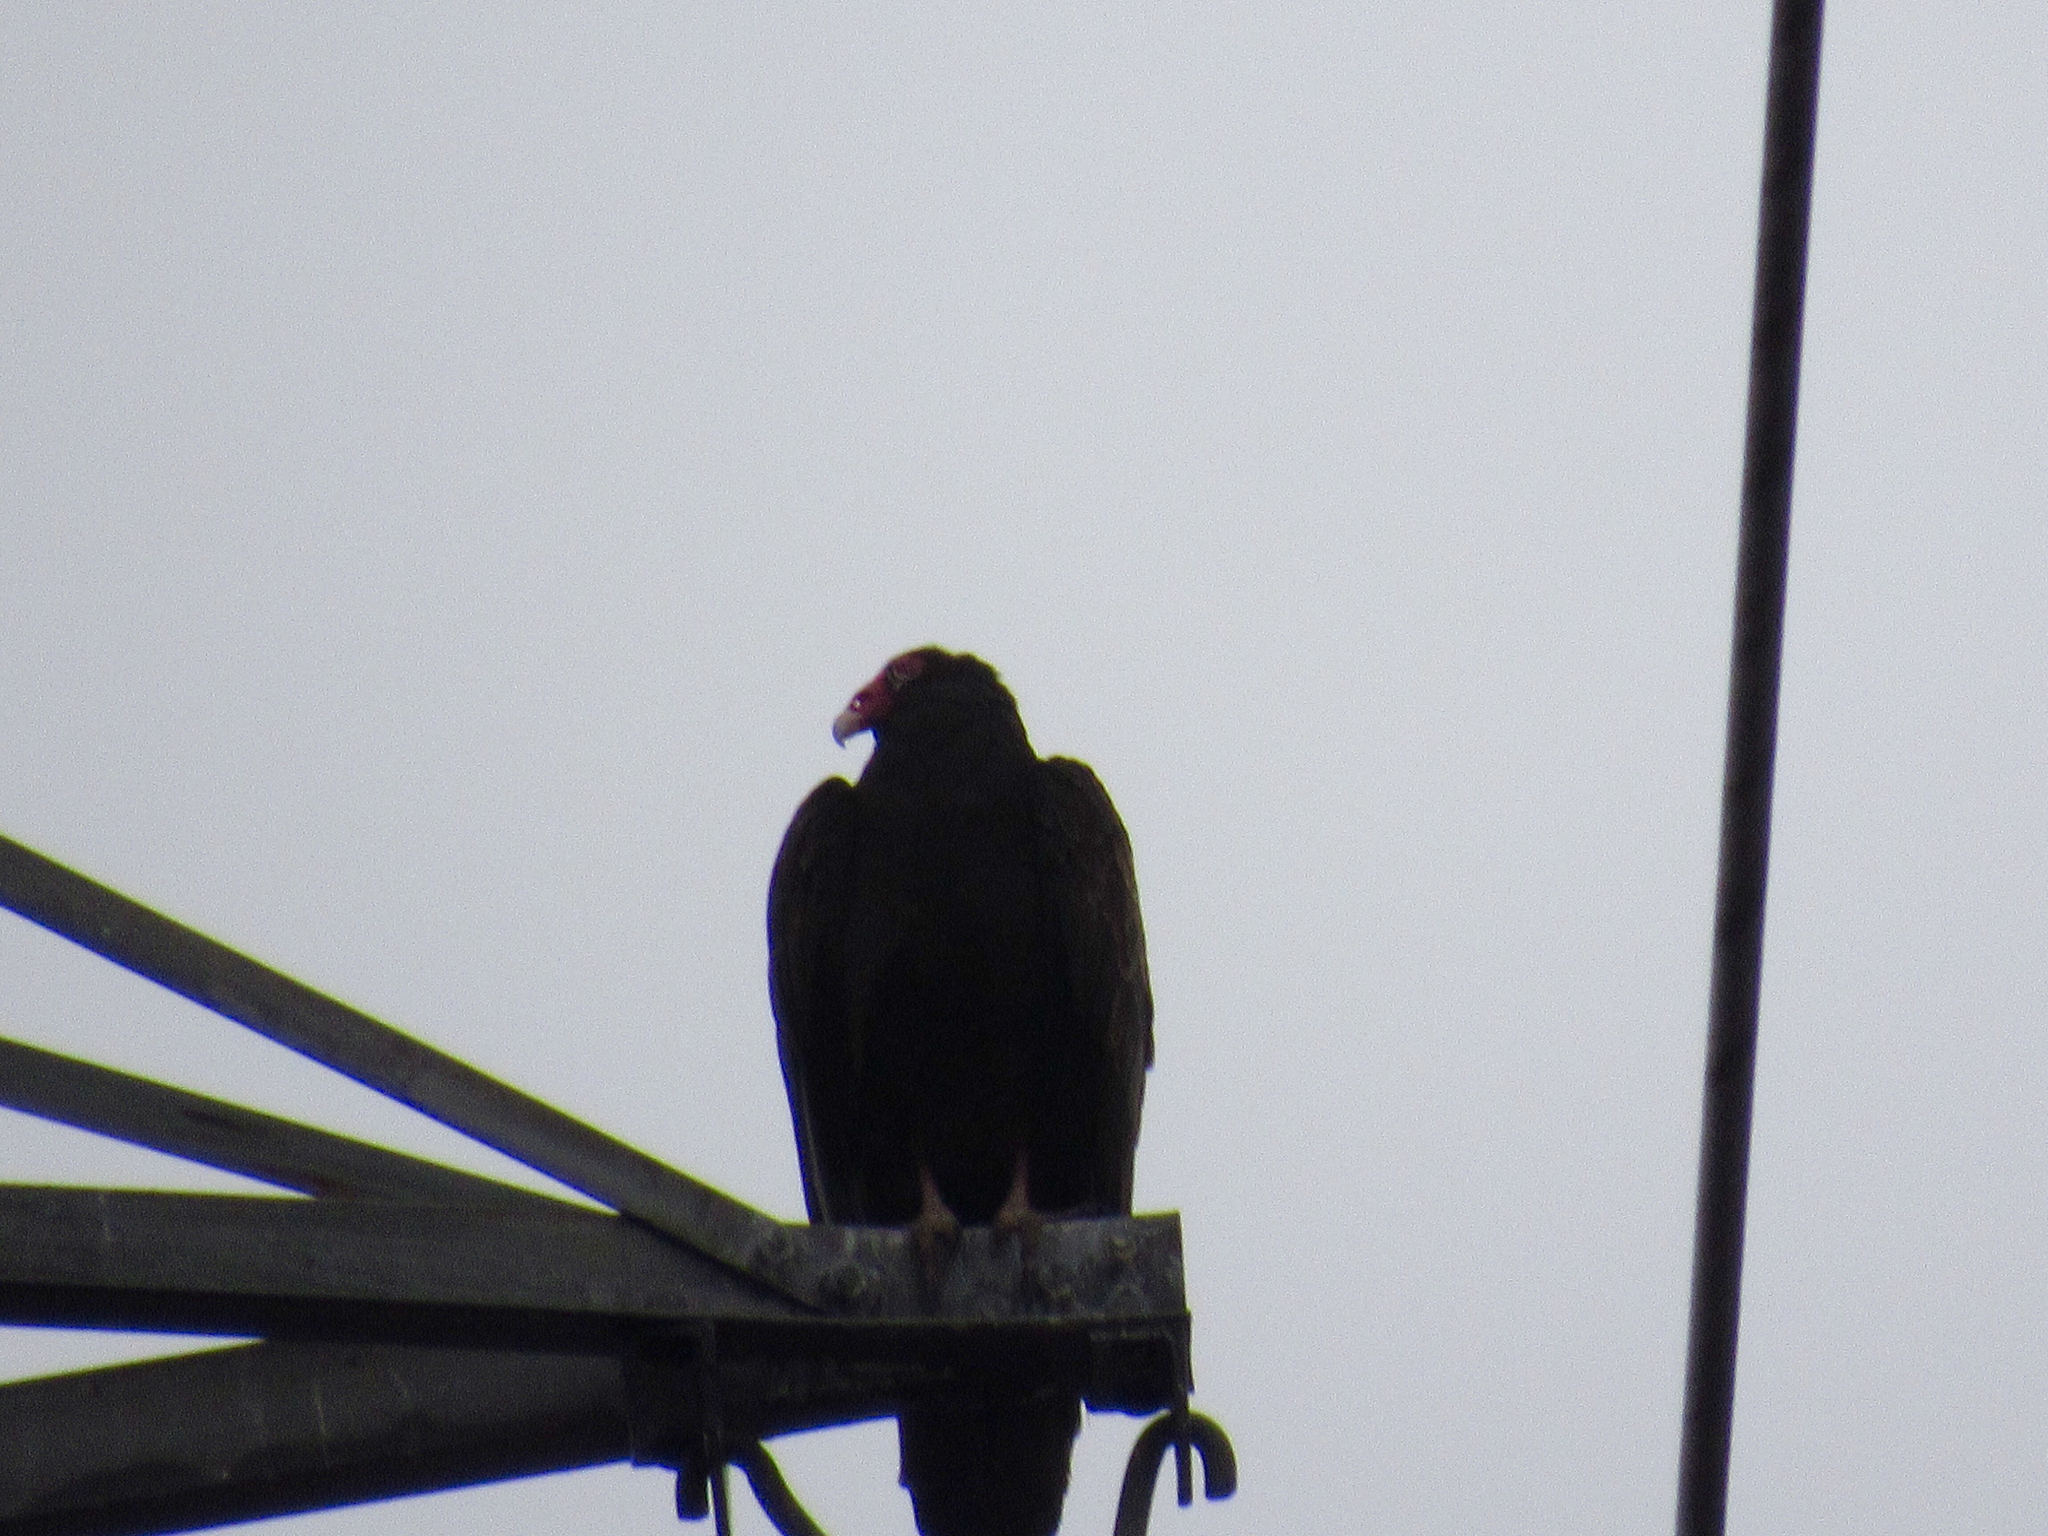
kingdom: Animalia
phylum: Chordata
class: Aves
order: Accipitriformes
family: Cathartidae
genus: Cathartes
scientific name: Cathartes aura
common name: Turkey vulture
